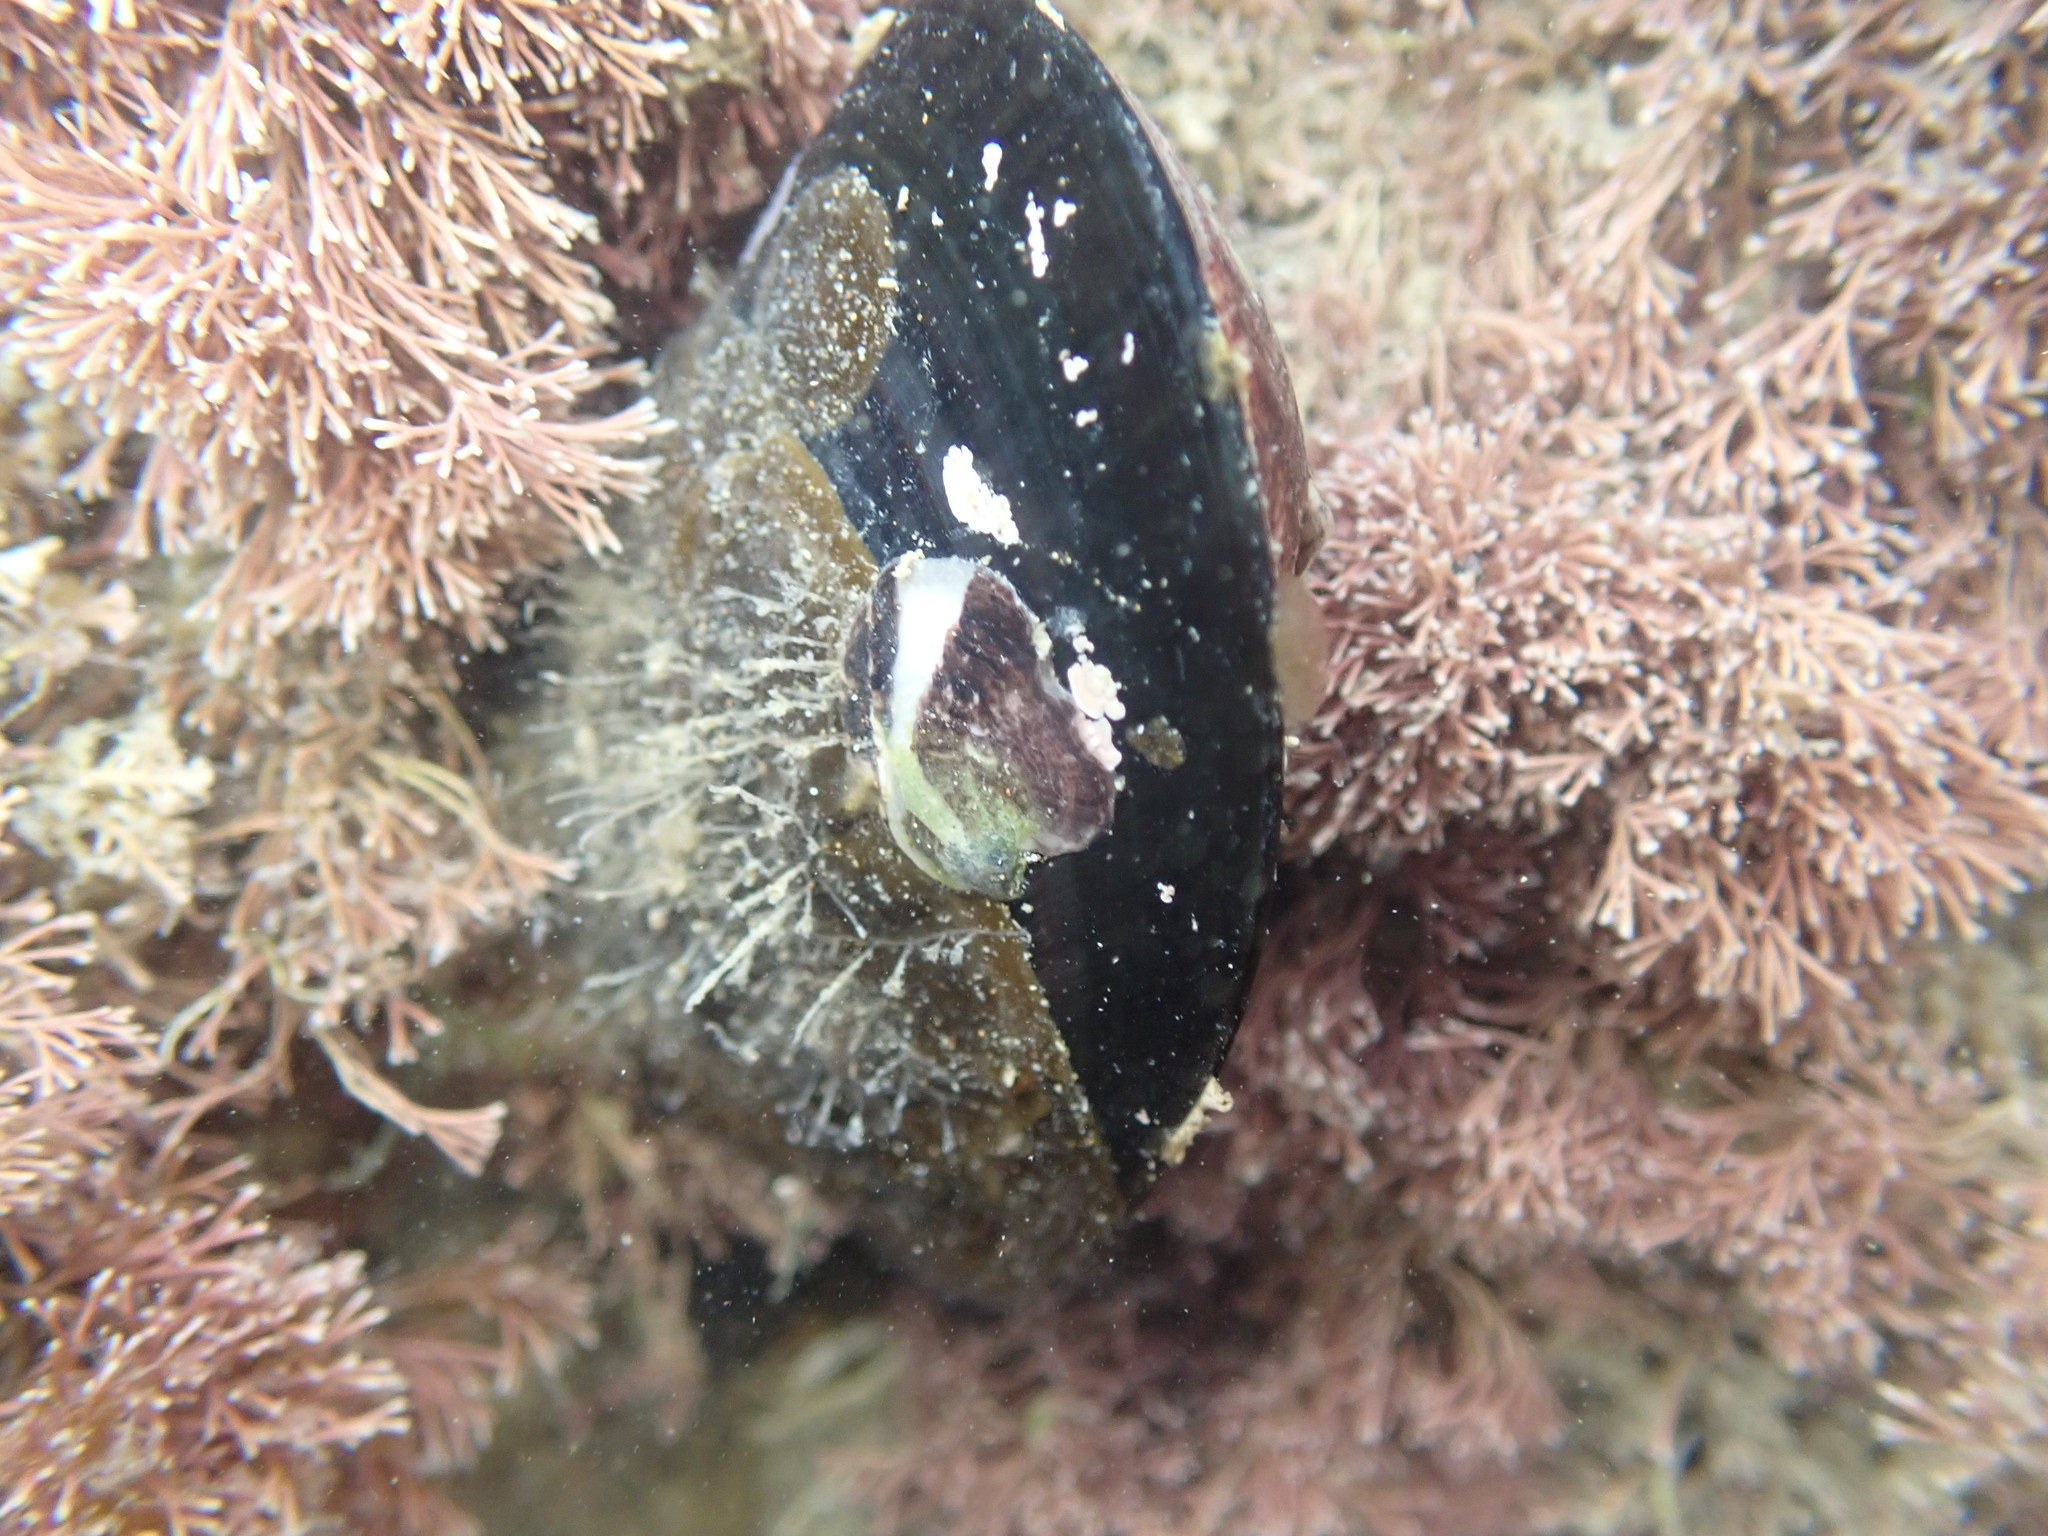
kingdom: Animalia
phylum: Mollusca
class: Bivalvia
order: Mytilida
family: Mytilidae
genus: Perna
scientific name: Perna canaliculus
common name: New zealand greenshelltm
